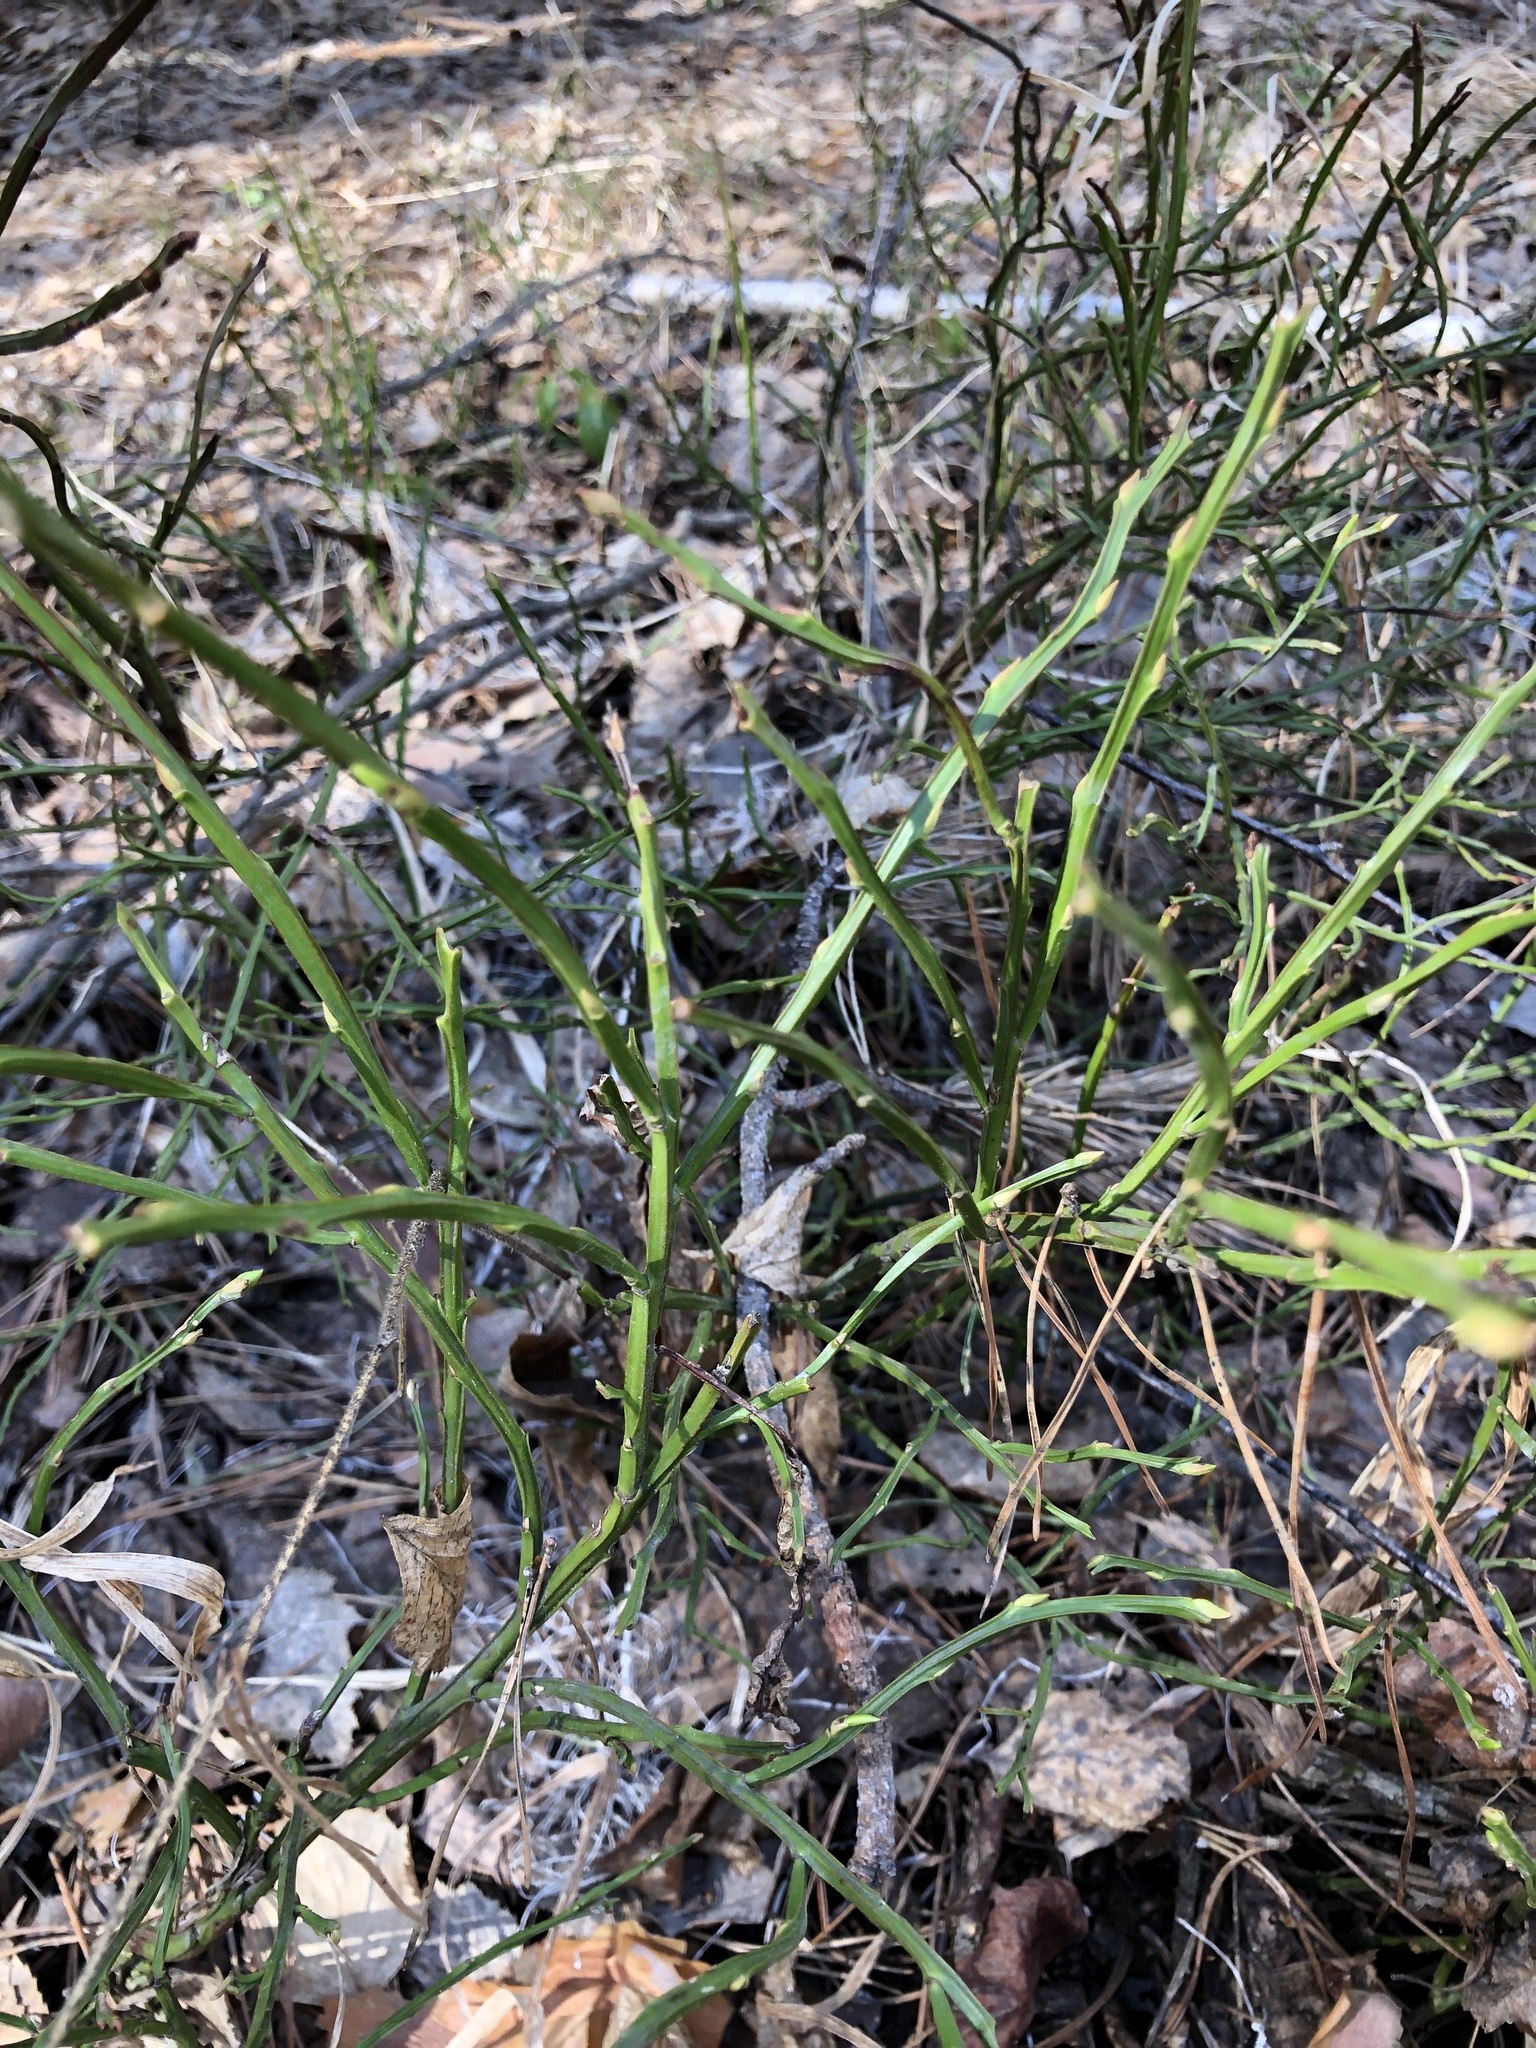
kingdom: Plantae
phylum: Tracheophyta
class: Magnoliopsida
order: Ericales
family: Ericaceae
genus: Vaccinium
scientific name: Vaccinium myrtillus
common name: Bilberry
